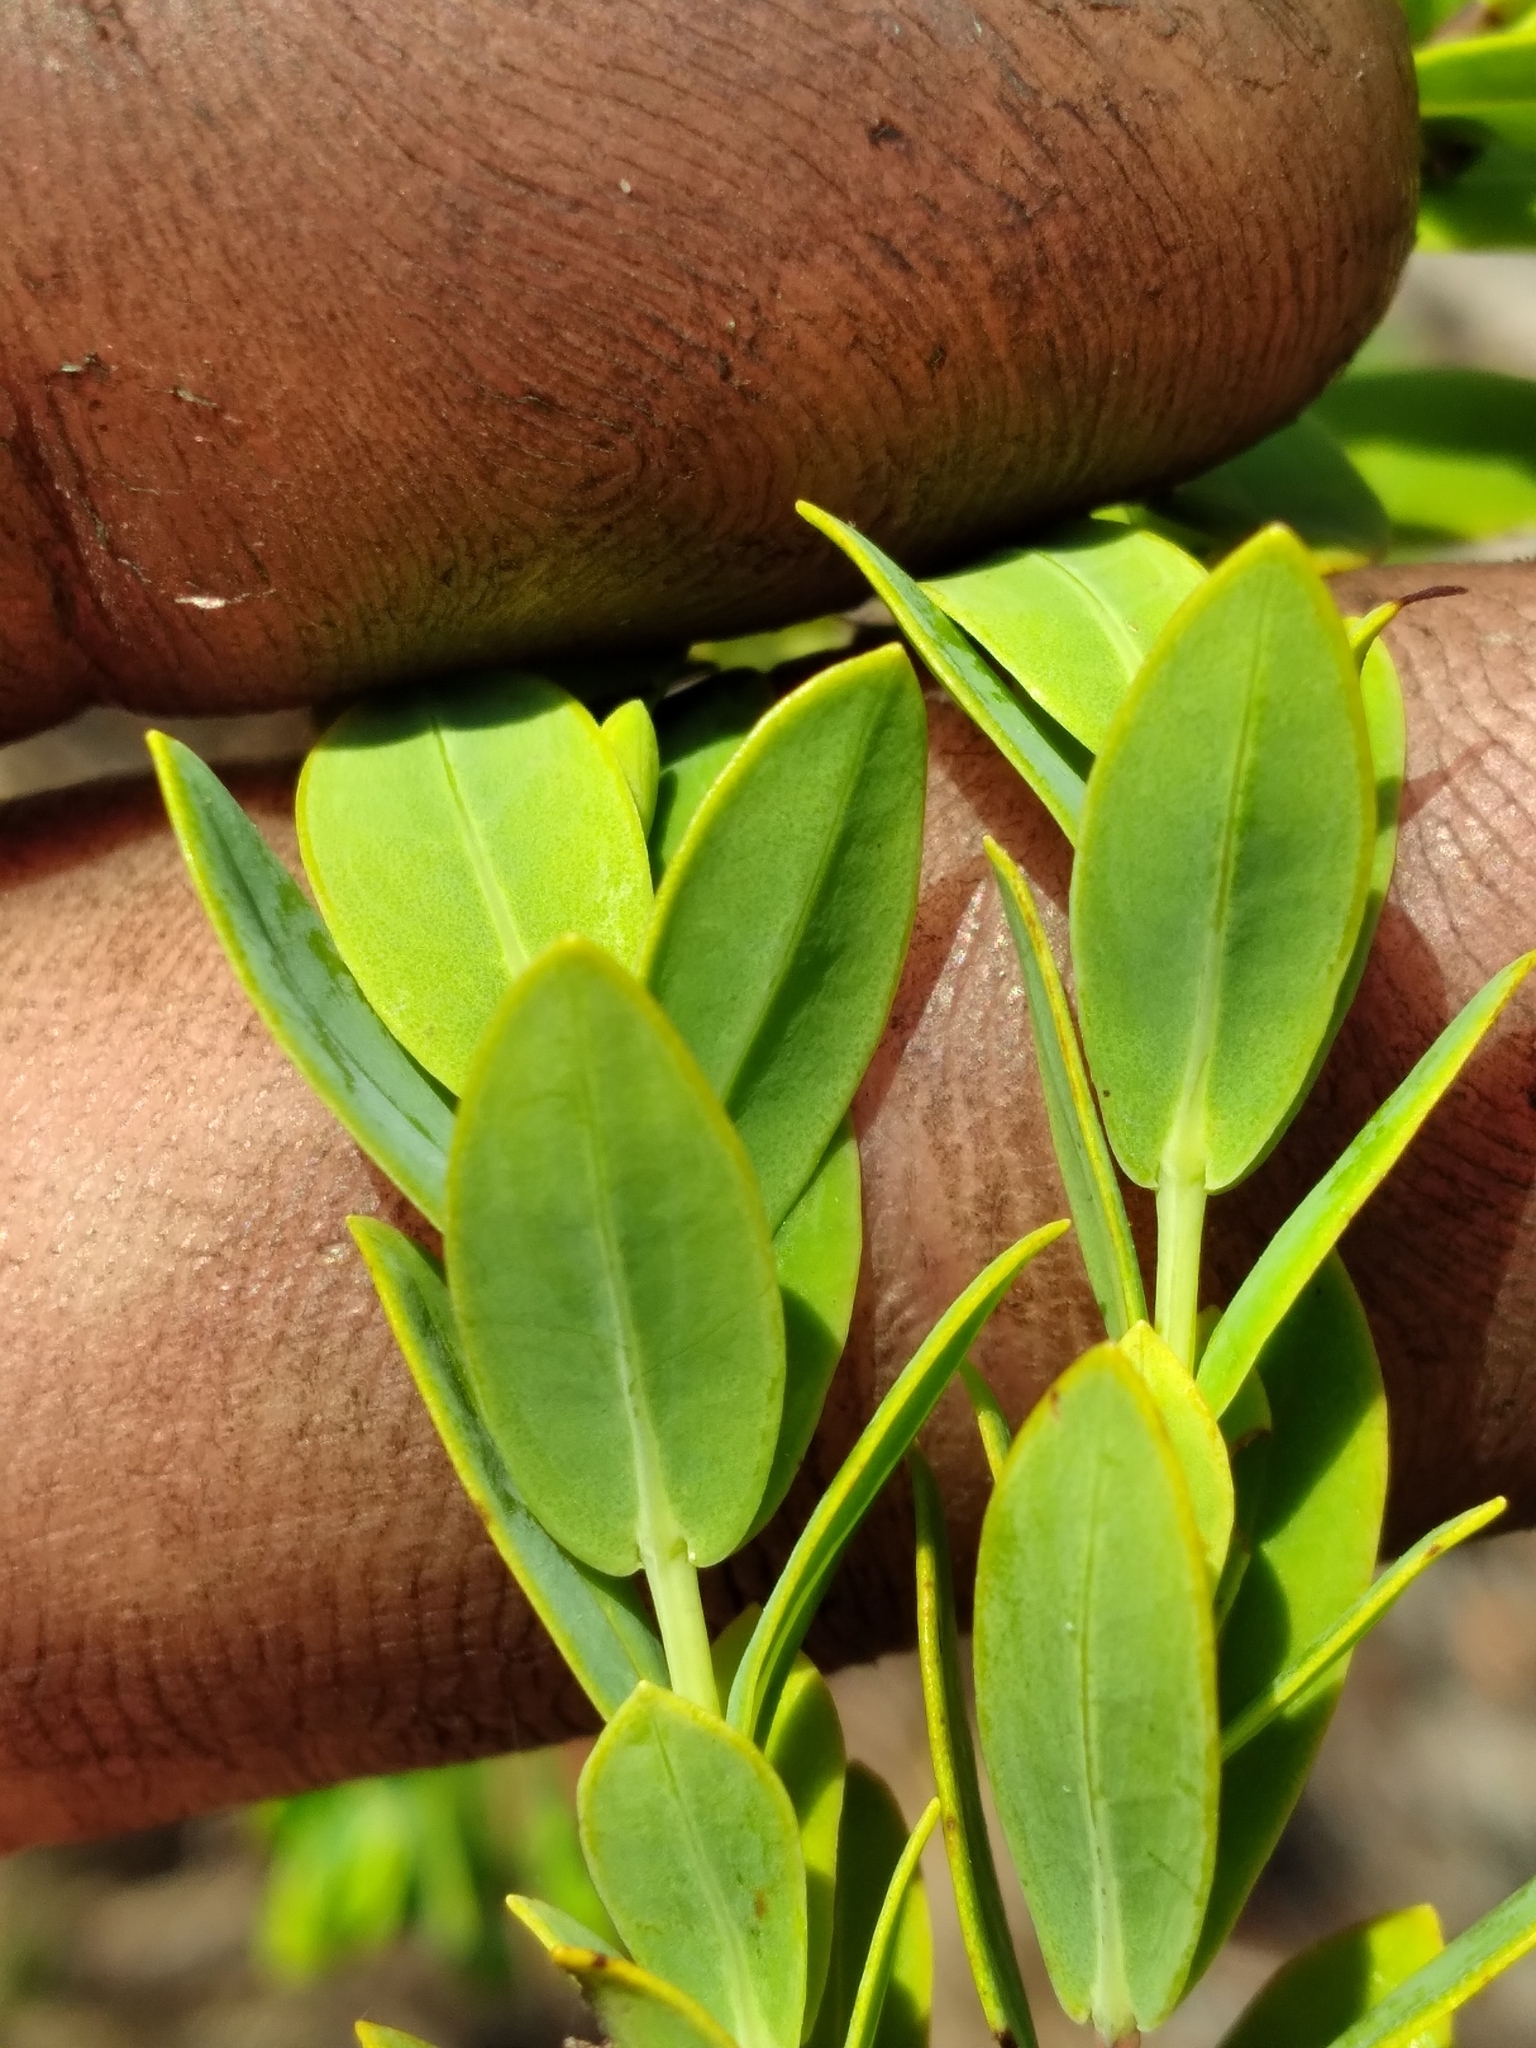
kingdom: Plantae
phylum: Tracheophyta
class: Magnoliopsida
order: Malpighiales
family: Hypericaceae
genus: Hypericum
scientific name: Hypericum edisonianum
